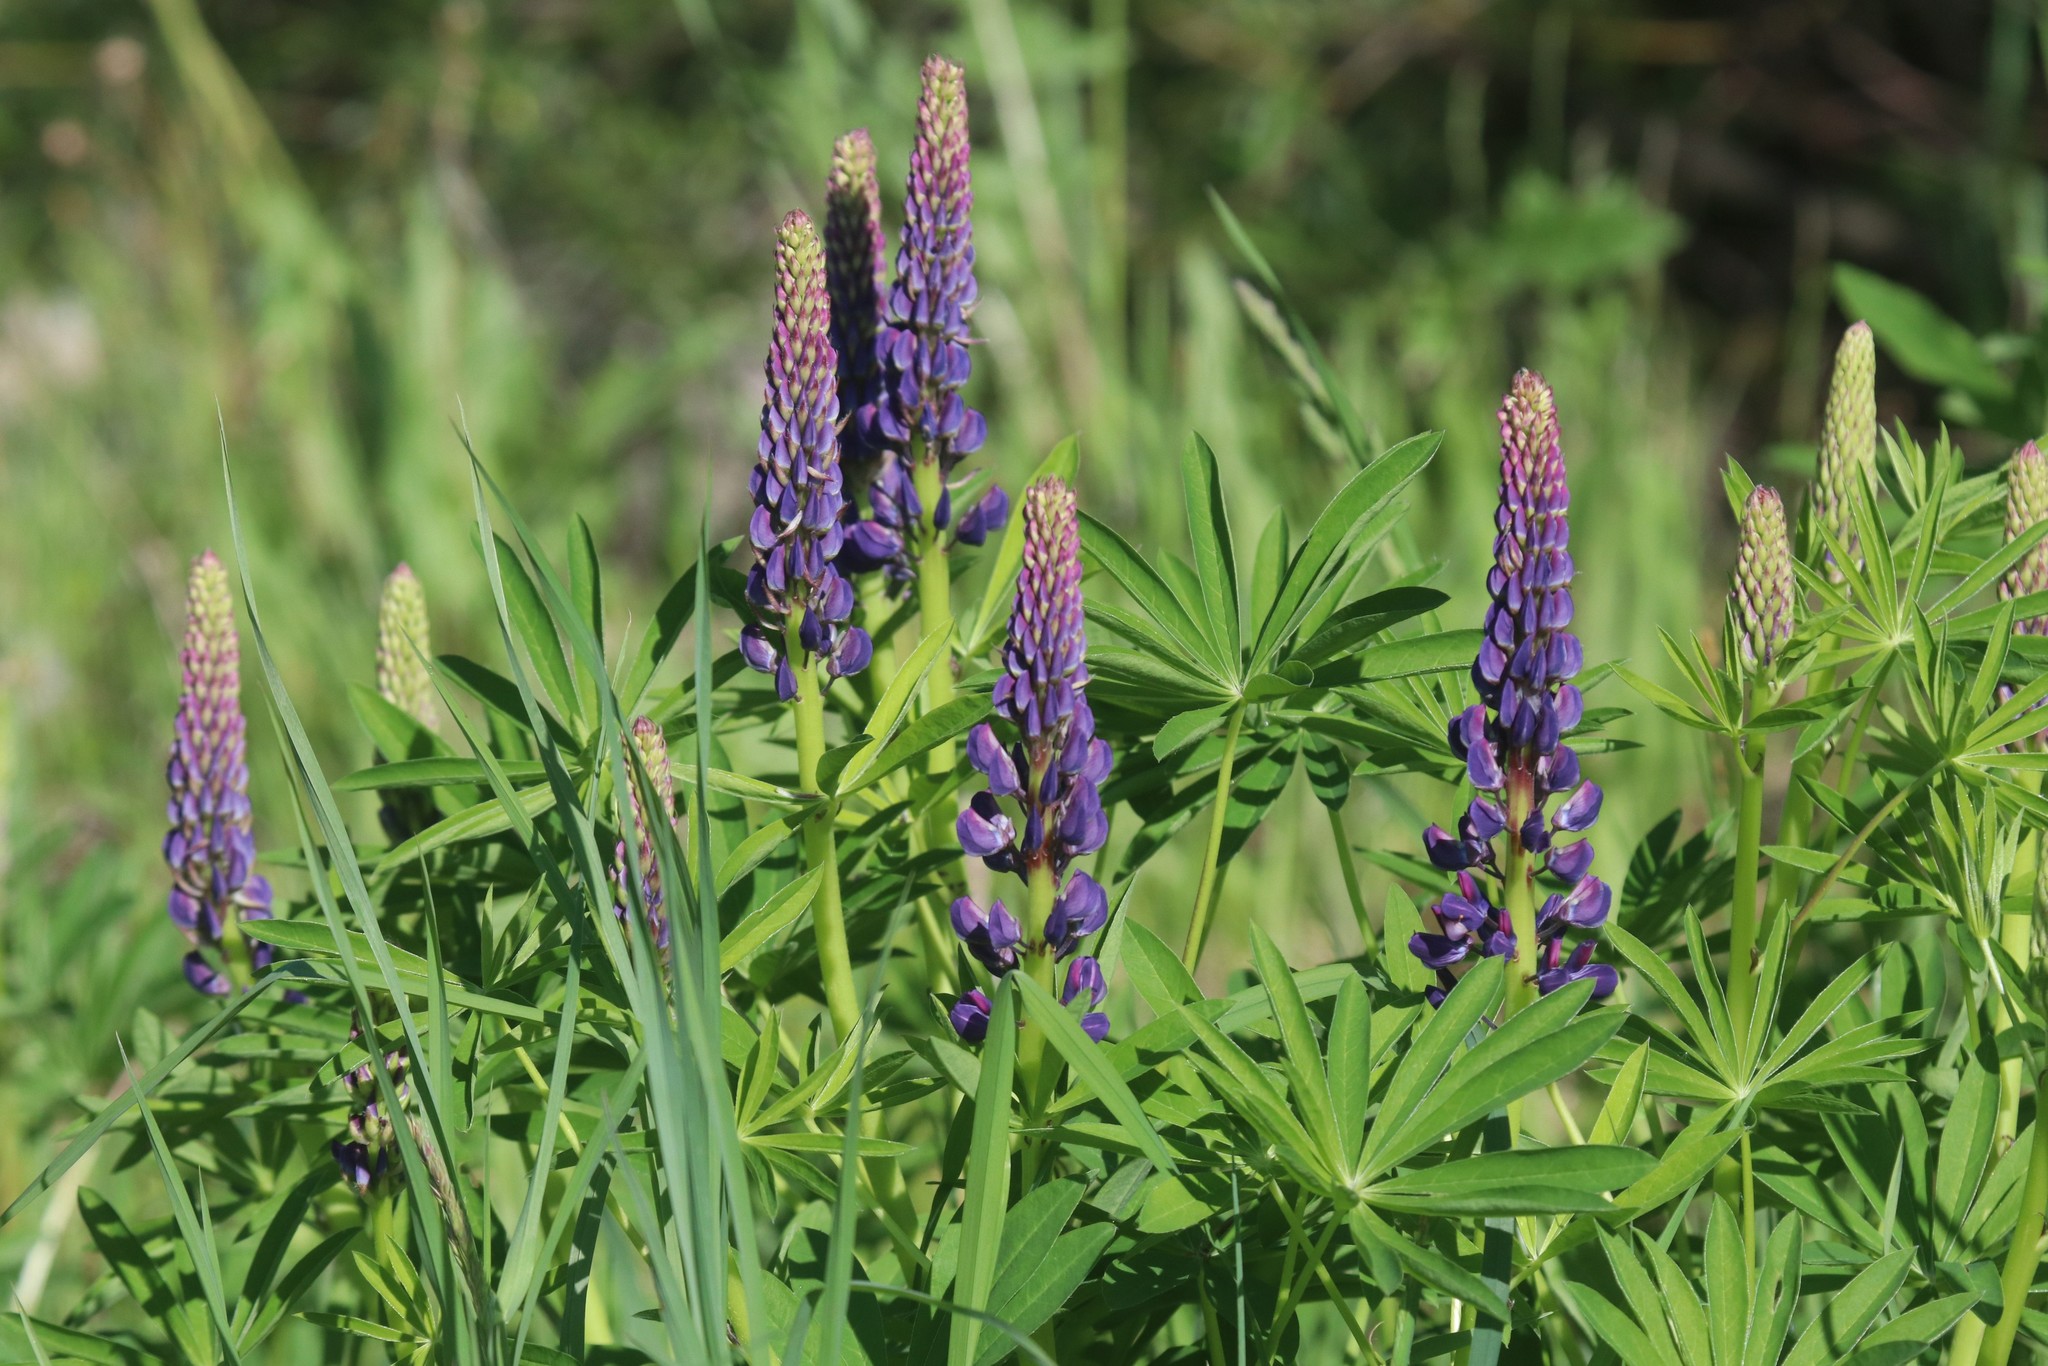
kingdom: Plantae
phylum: Tracheophyta
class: Magnoliopsida
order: Fabales
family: Fabaceae
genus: Lupinus
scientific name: Lupinus polyphyllus
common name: Garden lupin
